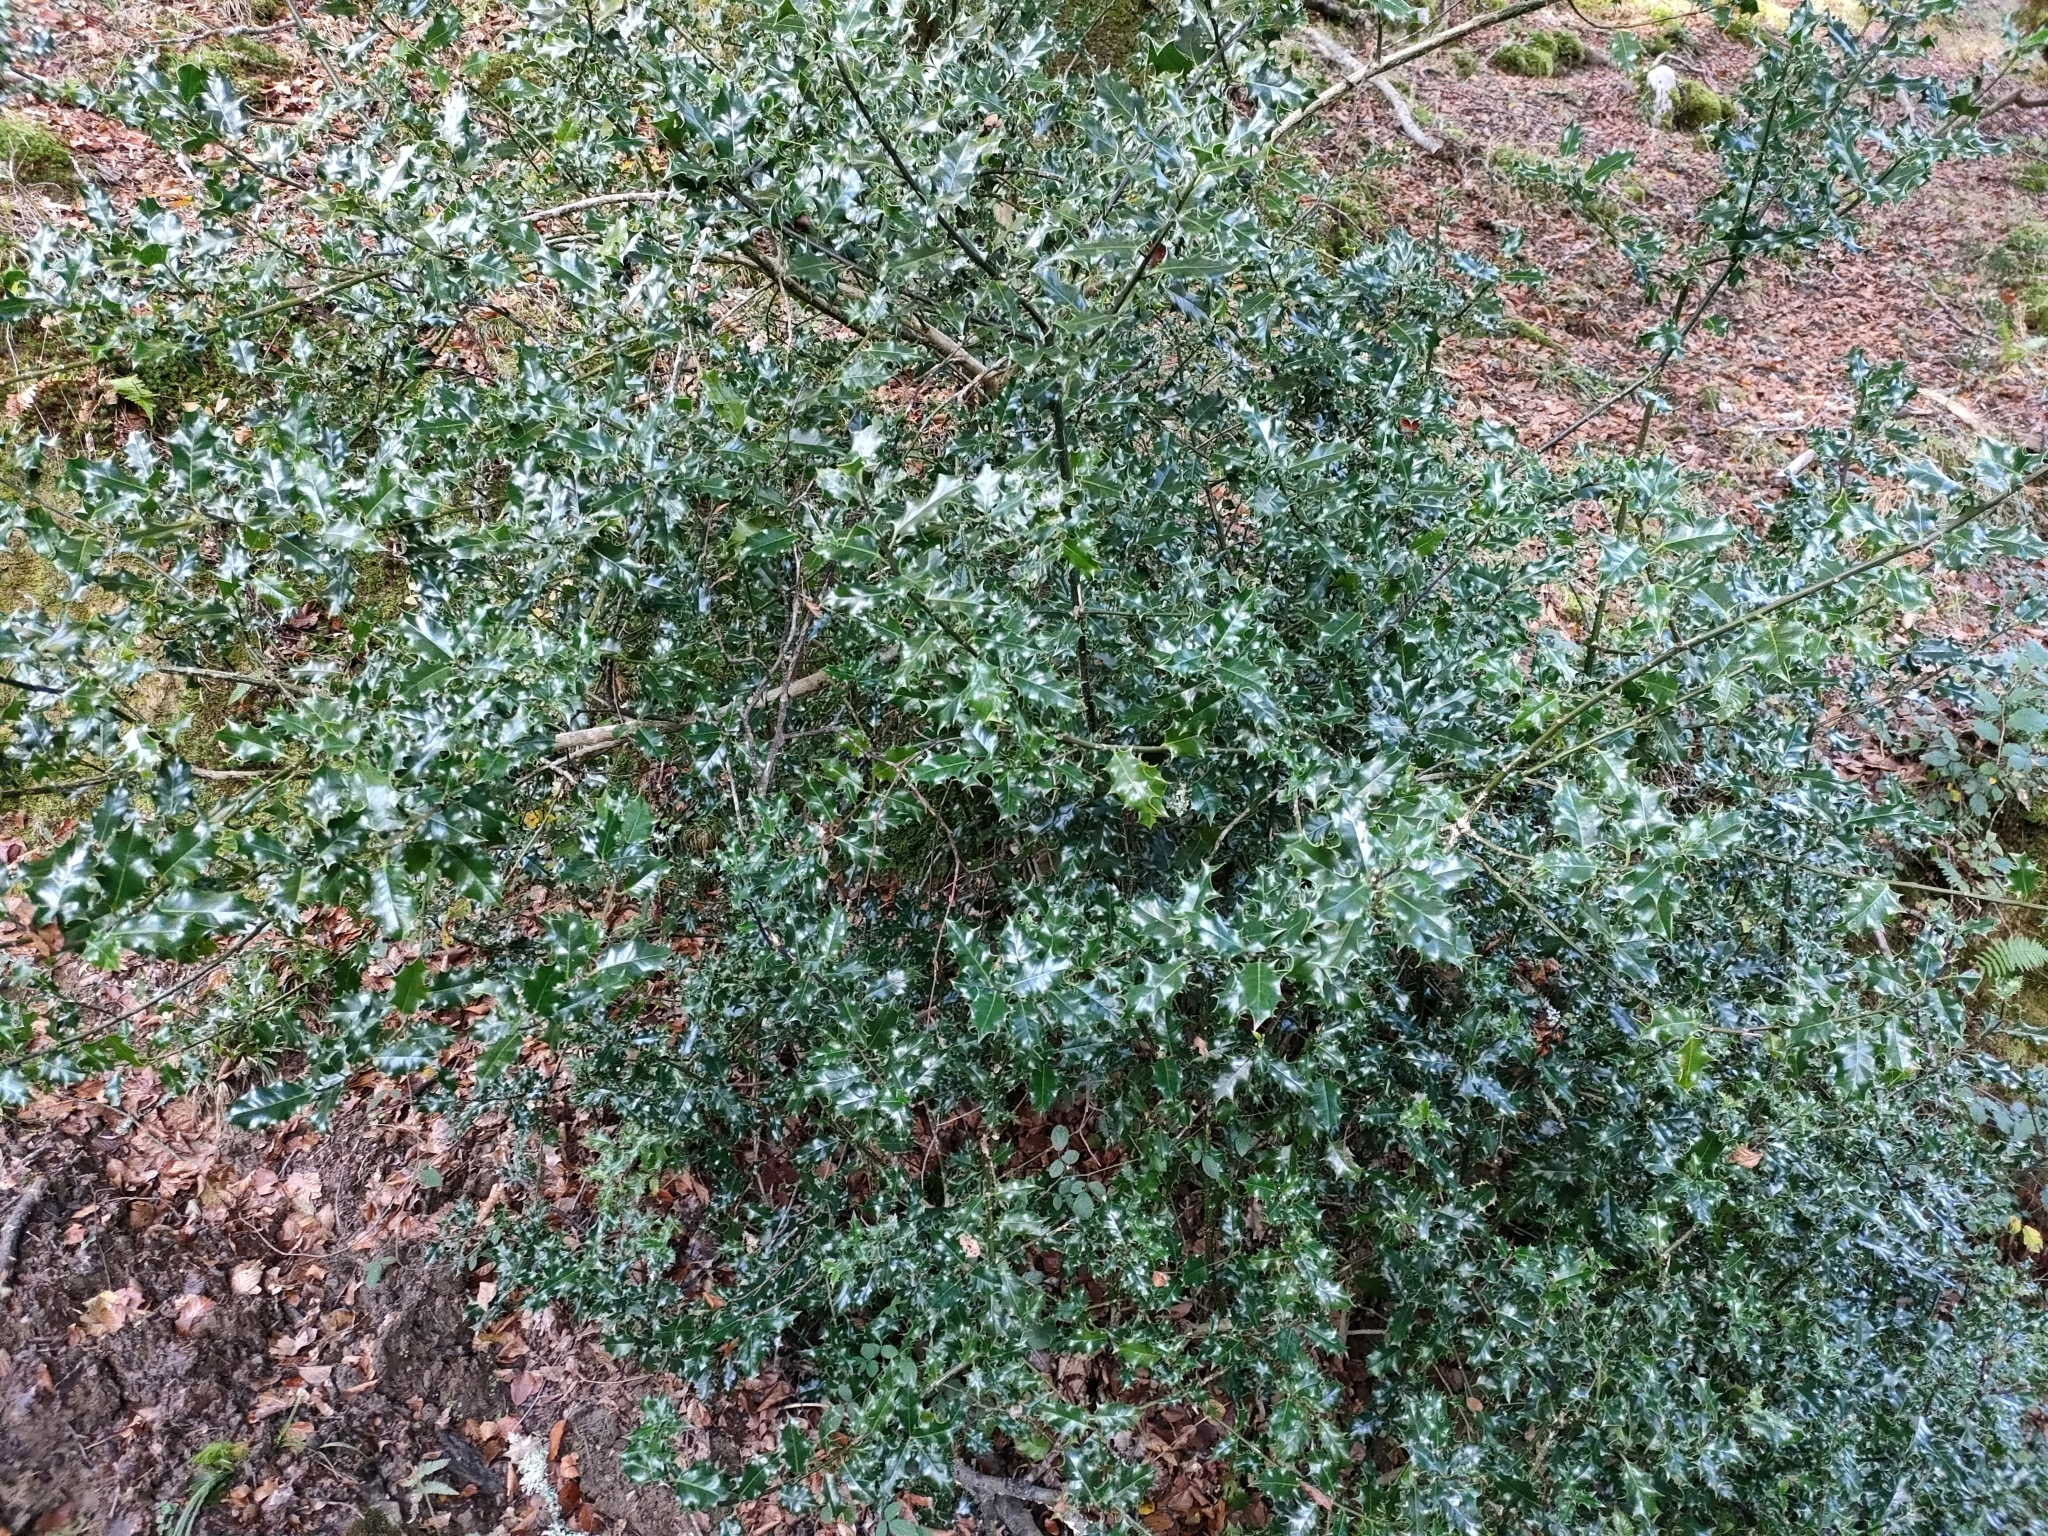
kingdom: Plantae
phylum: Tracheophyta
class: Magnoliopsida
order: Aquifoliales
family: Aquifoliaceae
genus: Ilex
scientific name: Ilex aquifolium
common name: English holly
